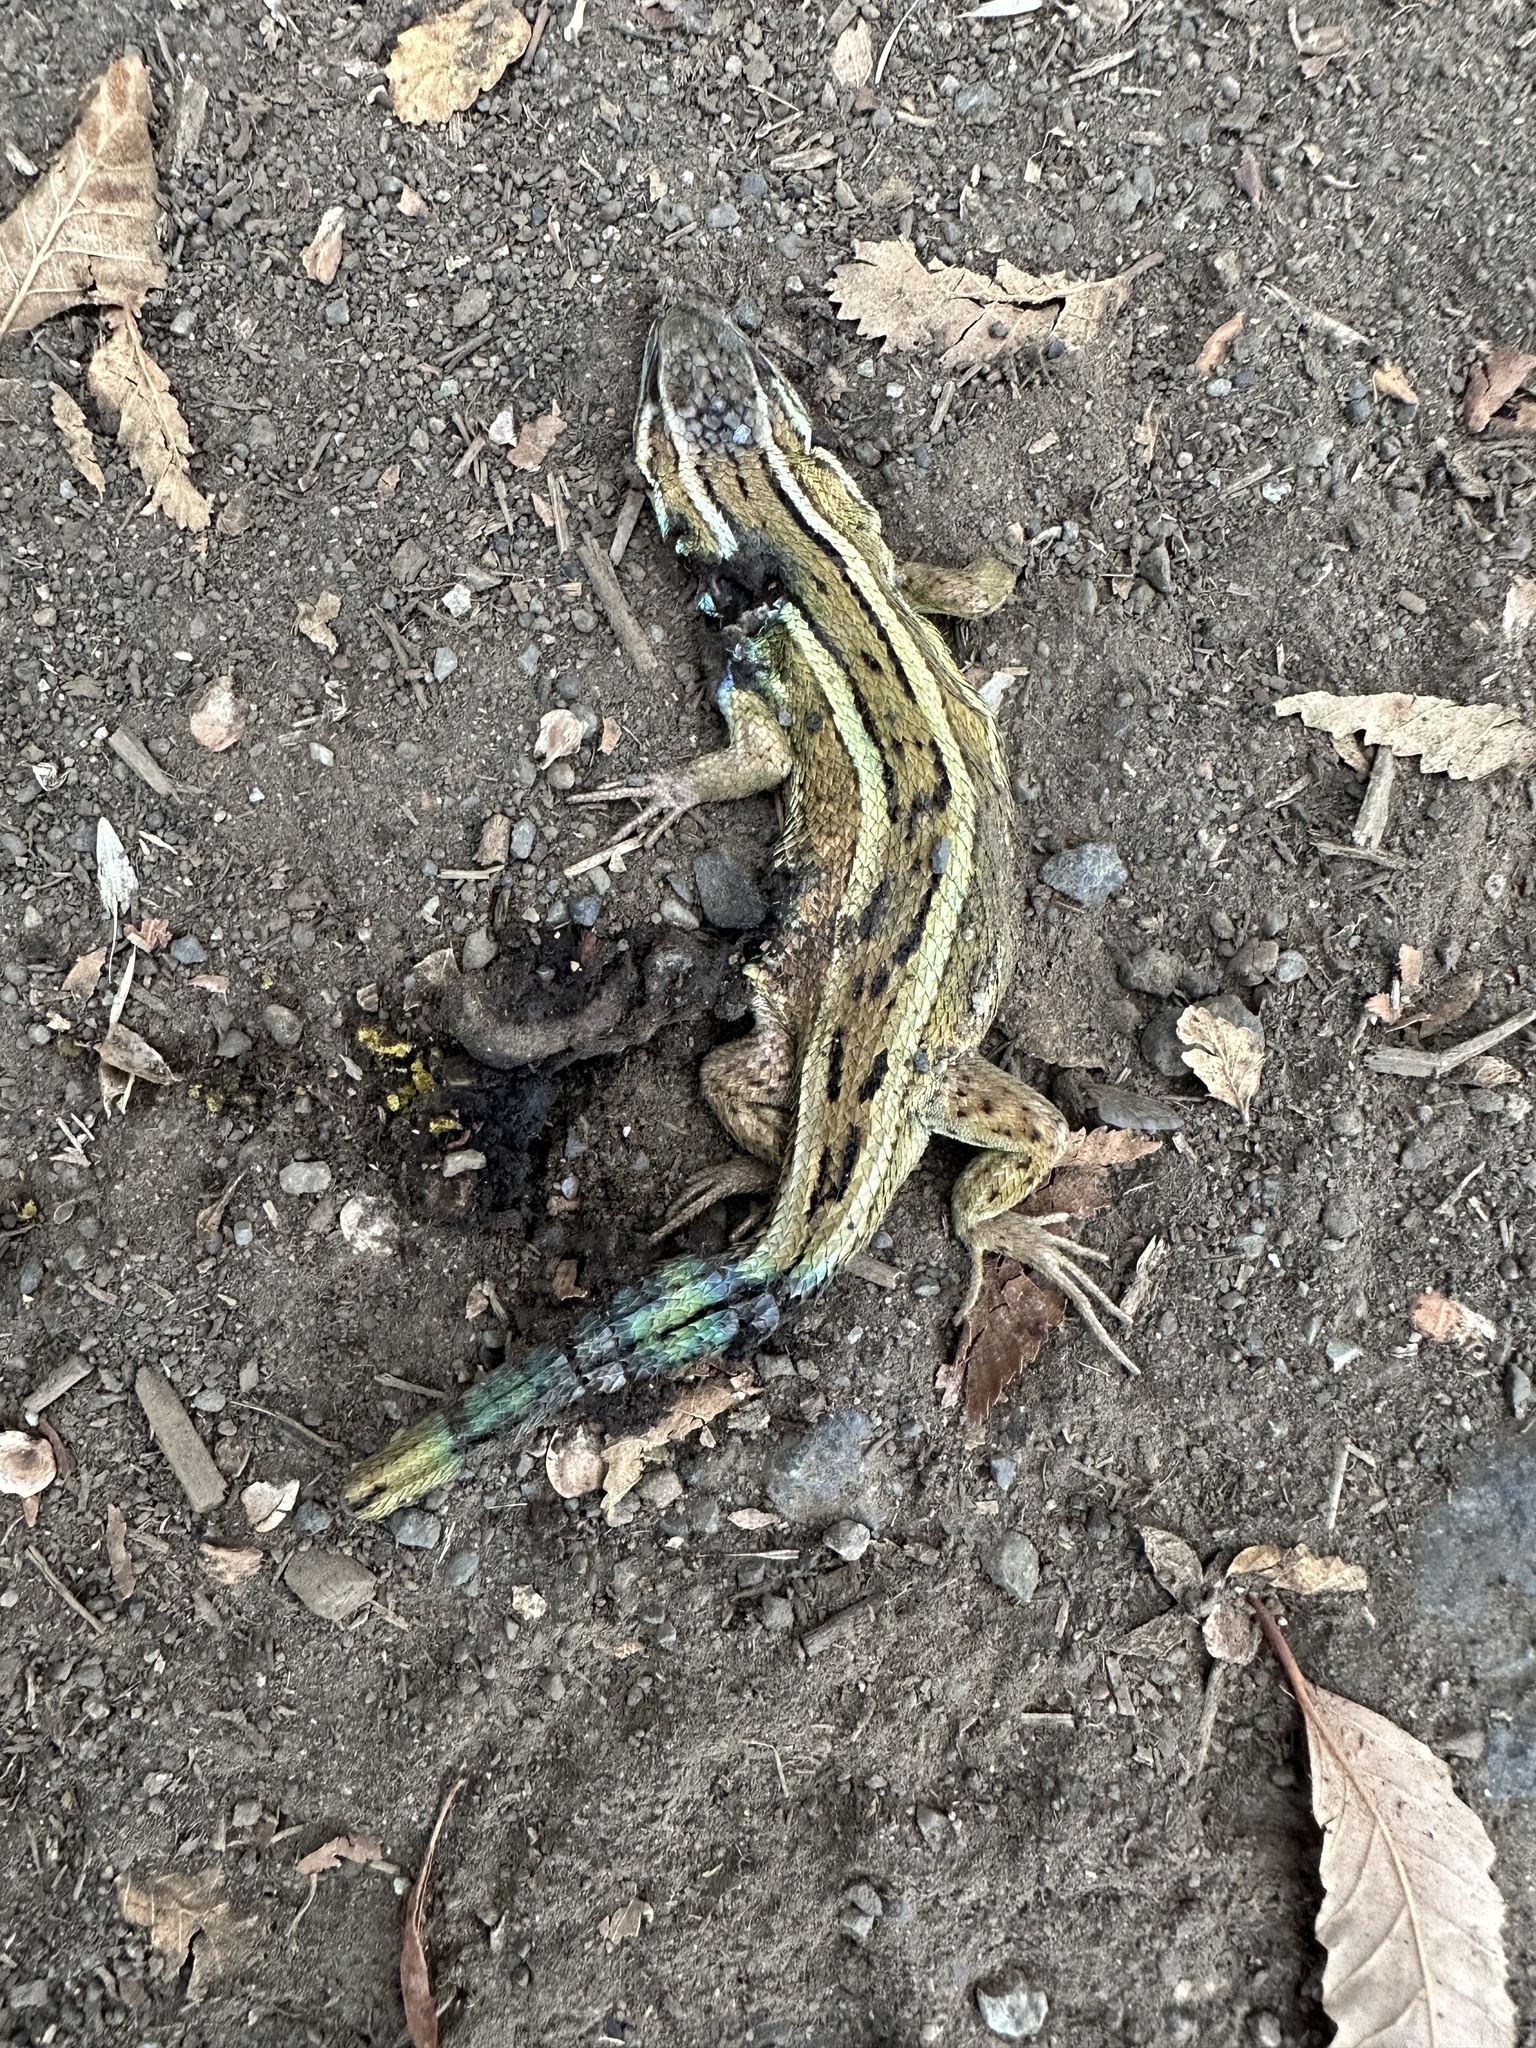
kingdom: Animalia
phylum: Chordata
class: Squamata
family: Liolaemidae
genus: Liolaemus
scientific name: Liolaemus cyanogaster
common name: Cyan tree iguana
